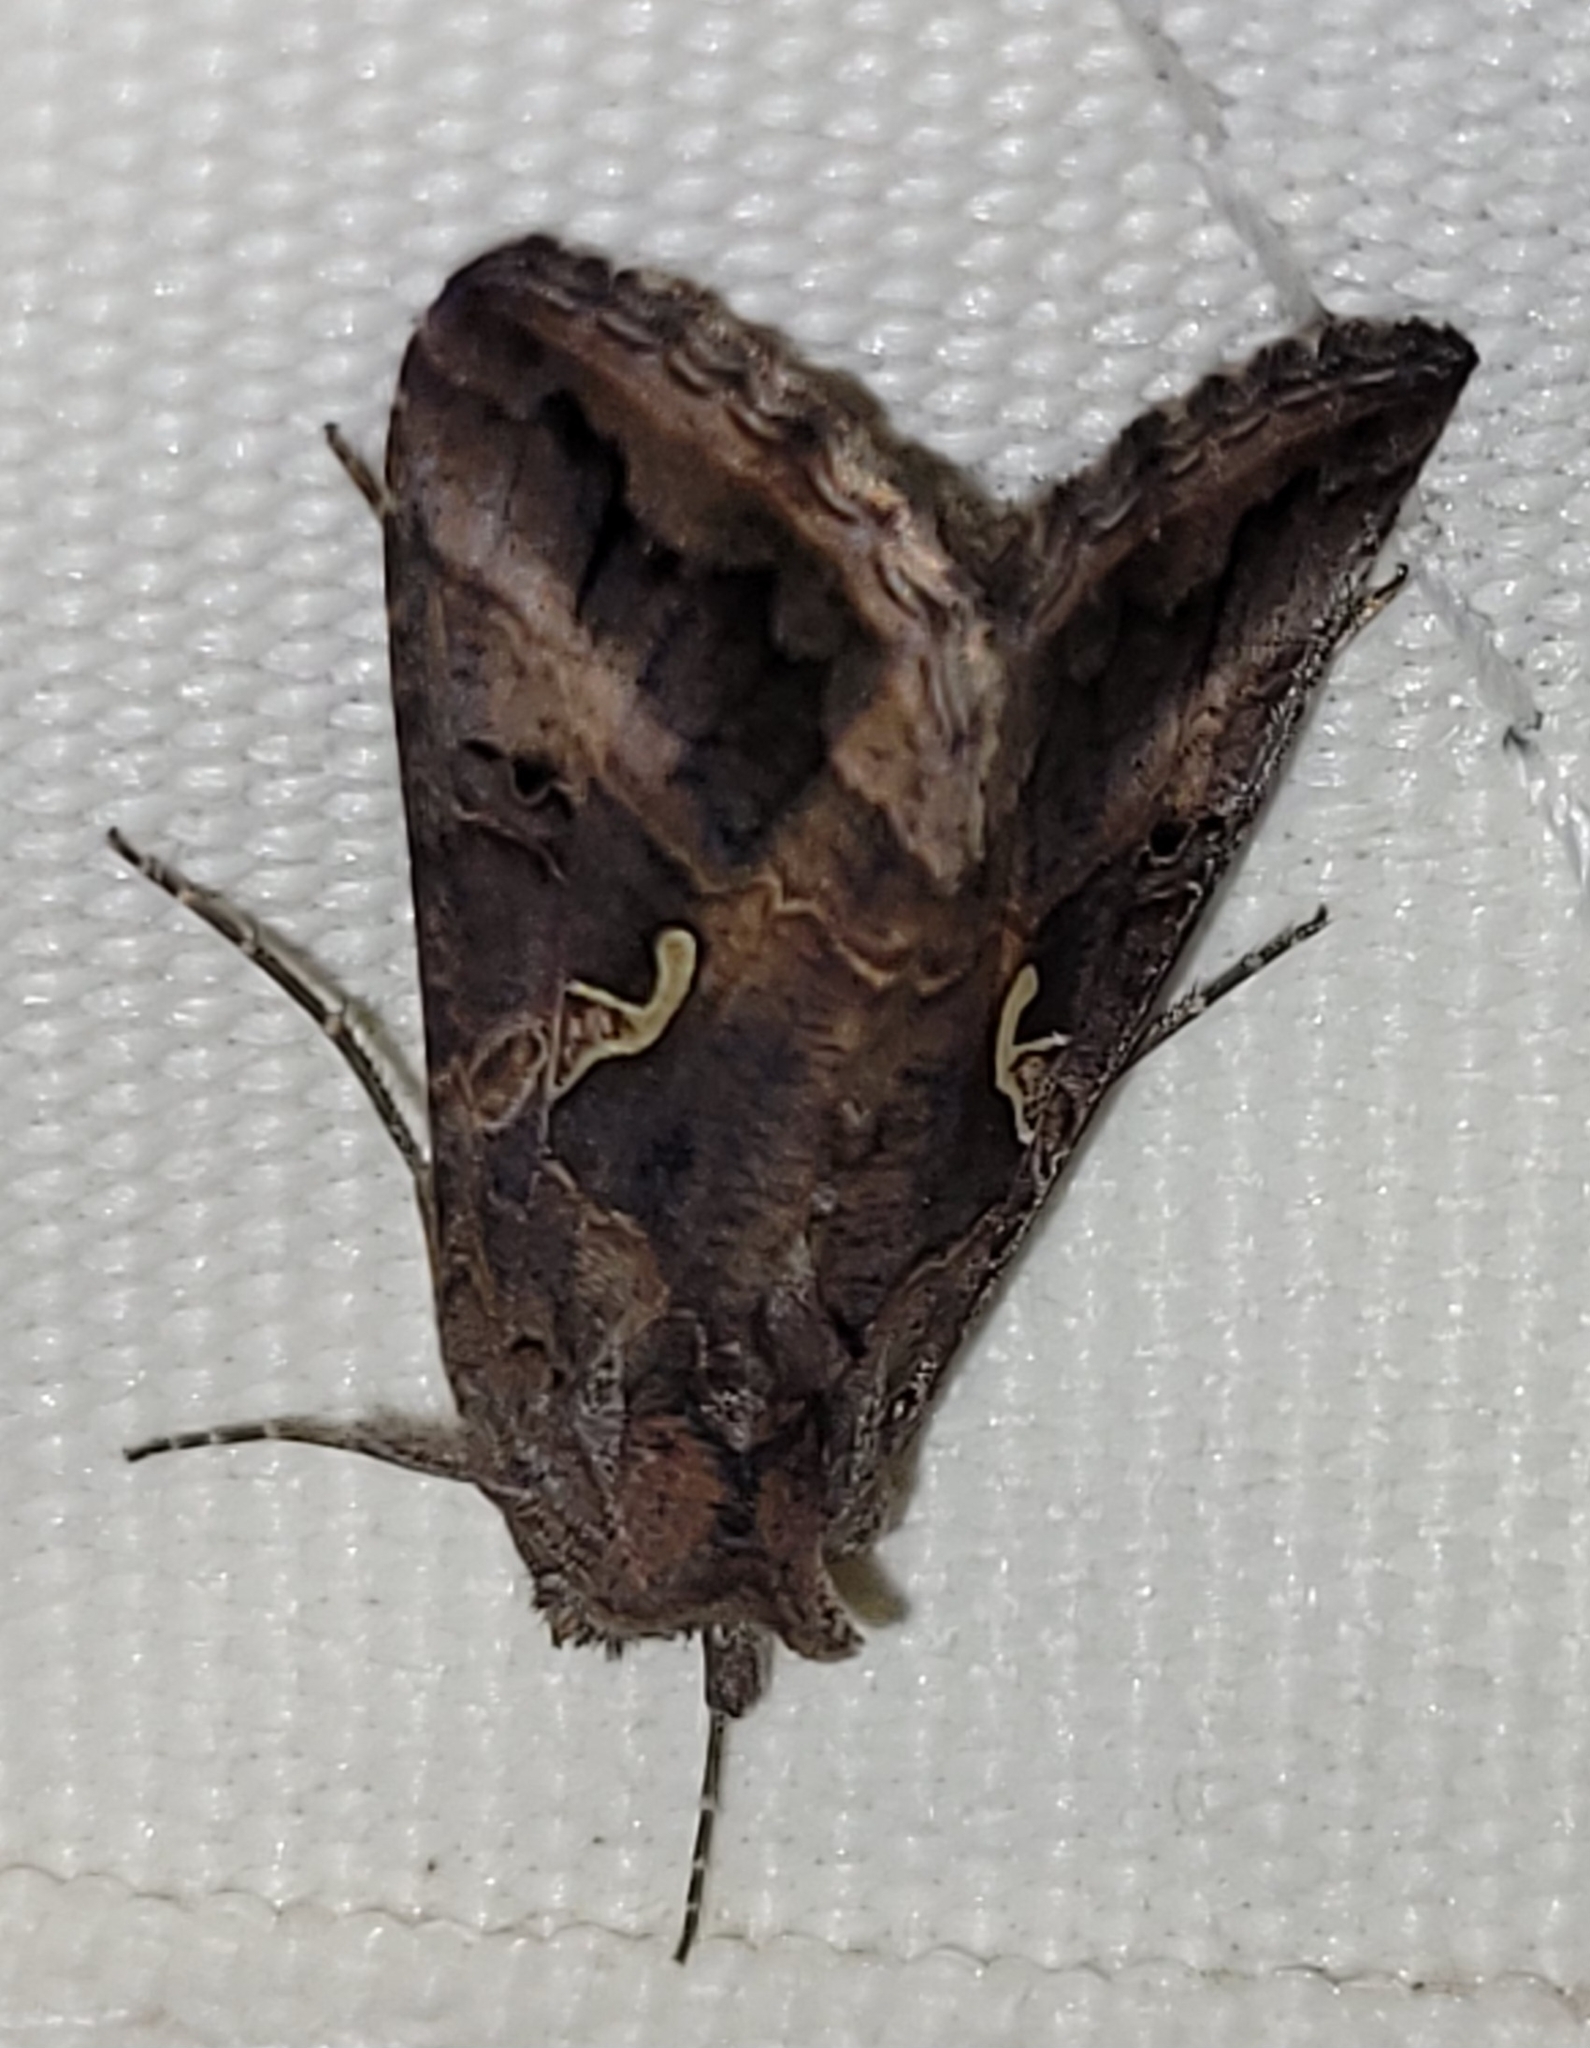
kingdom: Animalia
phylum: Arthropoda
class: Insecta
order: Lepidoptera
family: Noctuidae
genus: Autographa
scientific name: Autographa gamma
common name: Silver y
